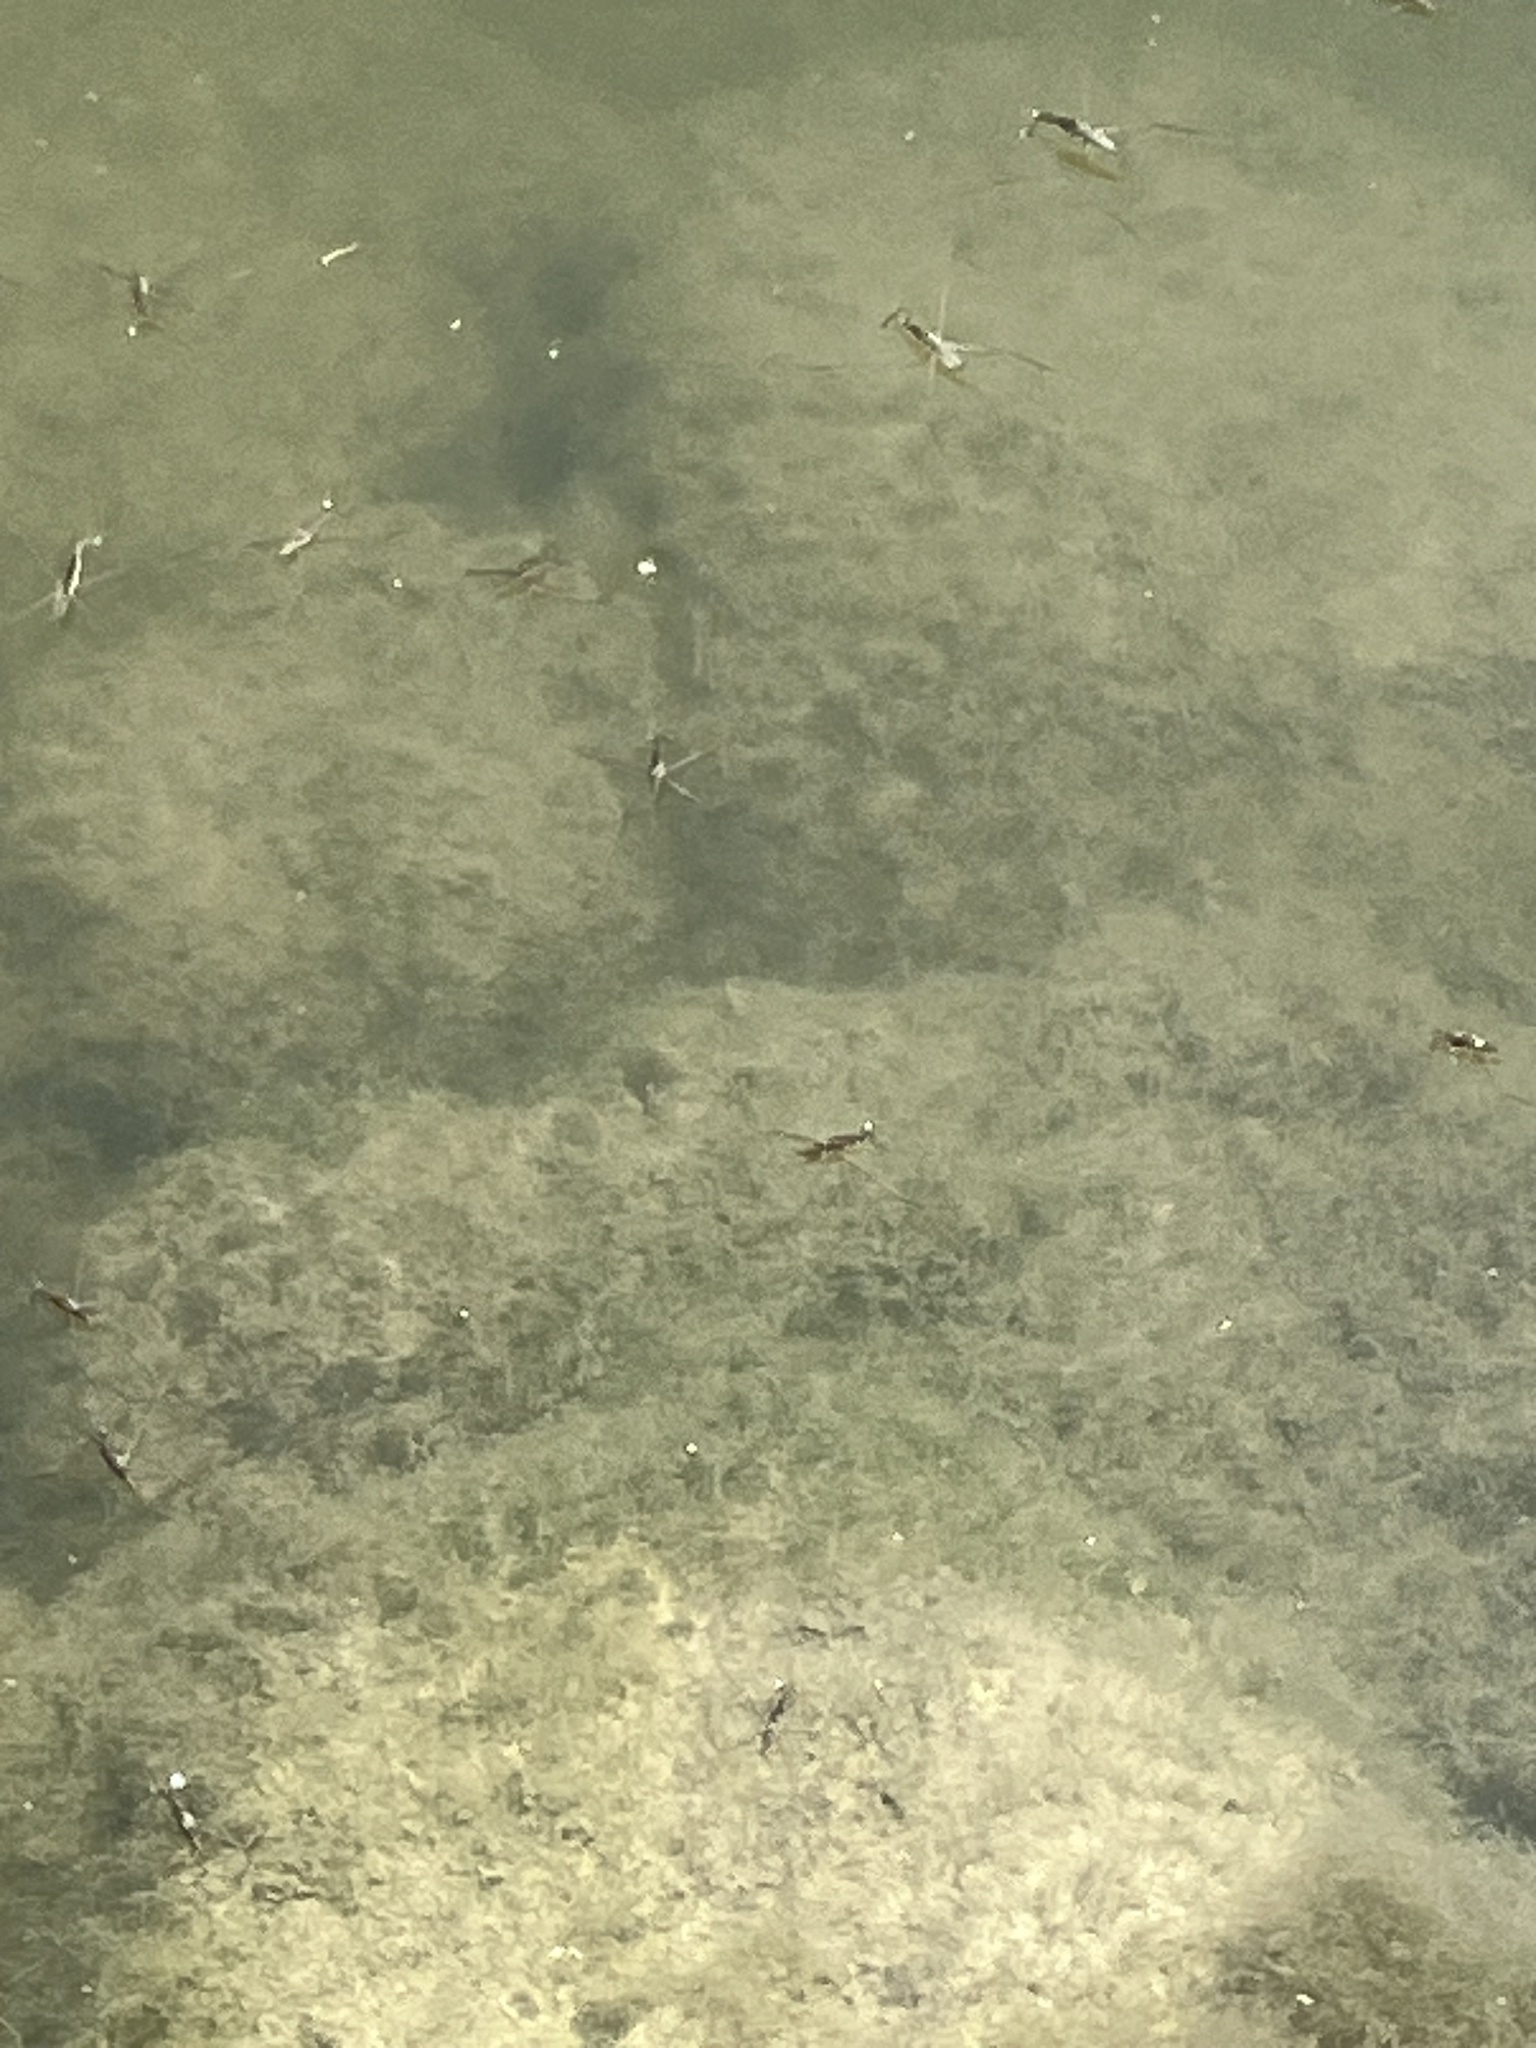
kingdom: Animalia
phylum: Arthropoda
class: Insecta
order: Hemiptera
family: Gerridae
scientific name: Gerridae
